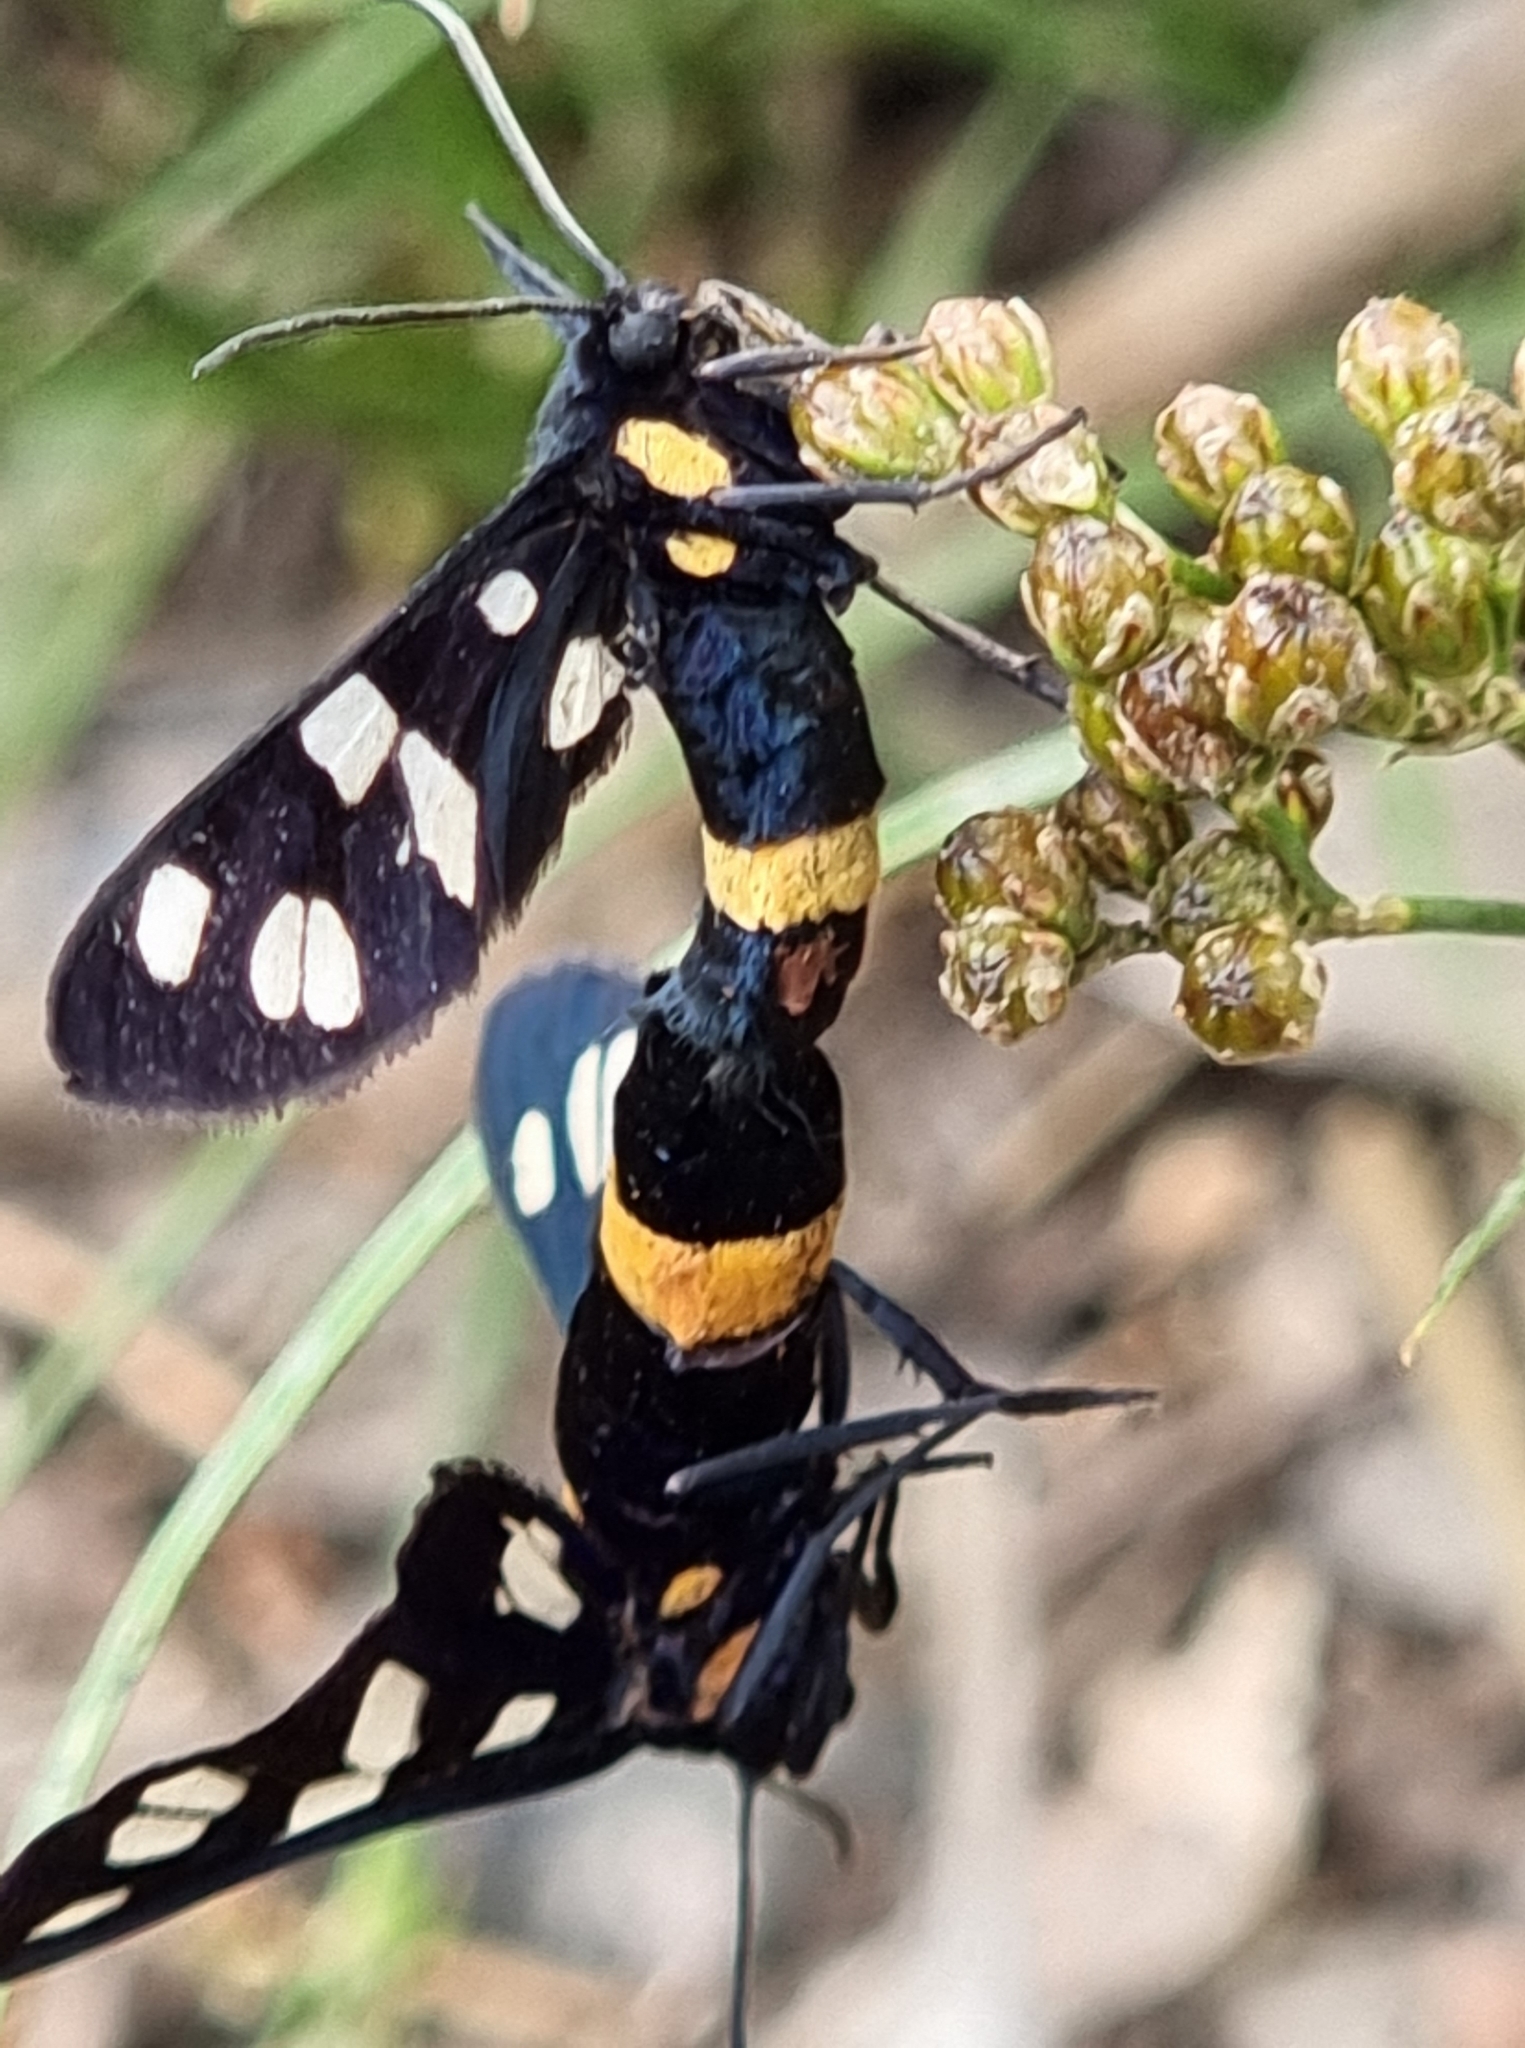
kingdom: Animalia
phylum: Arthropoda
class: Insecta
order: Lepidoptera
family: Erebidae
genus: Amata
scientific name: Amata caspia
